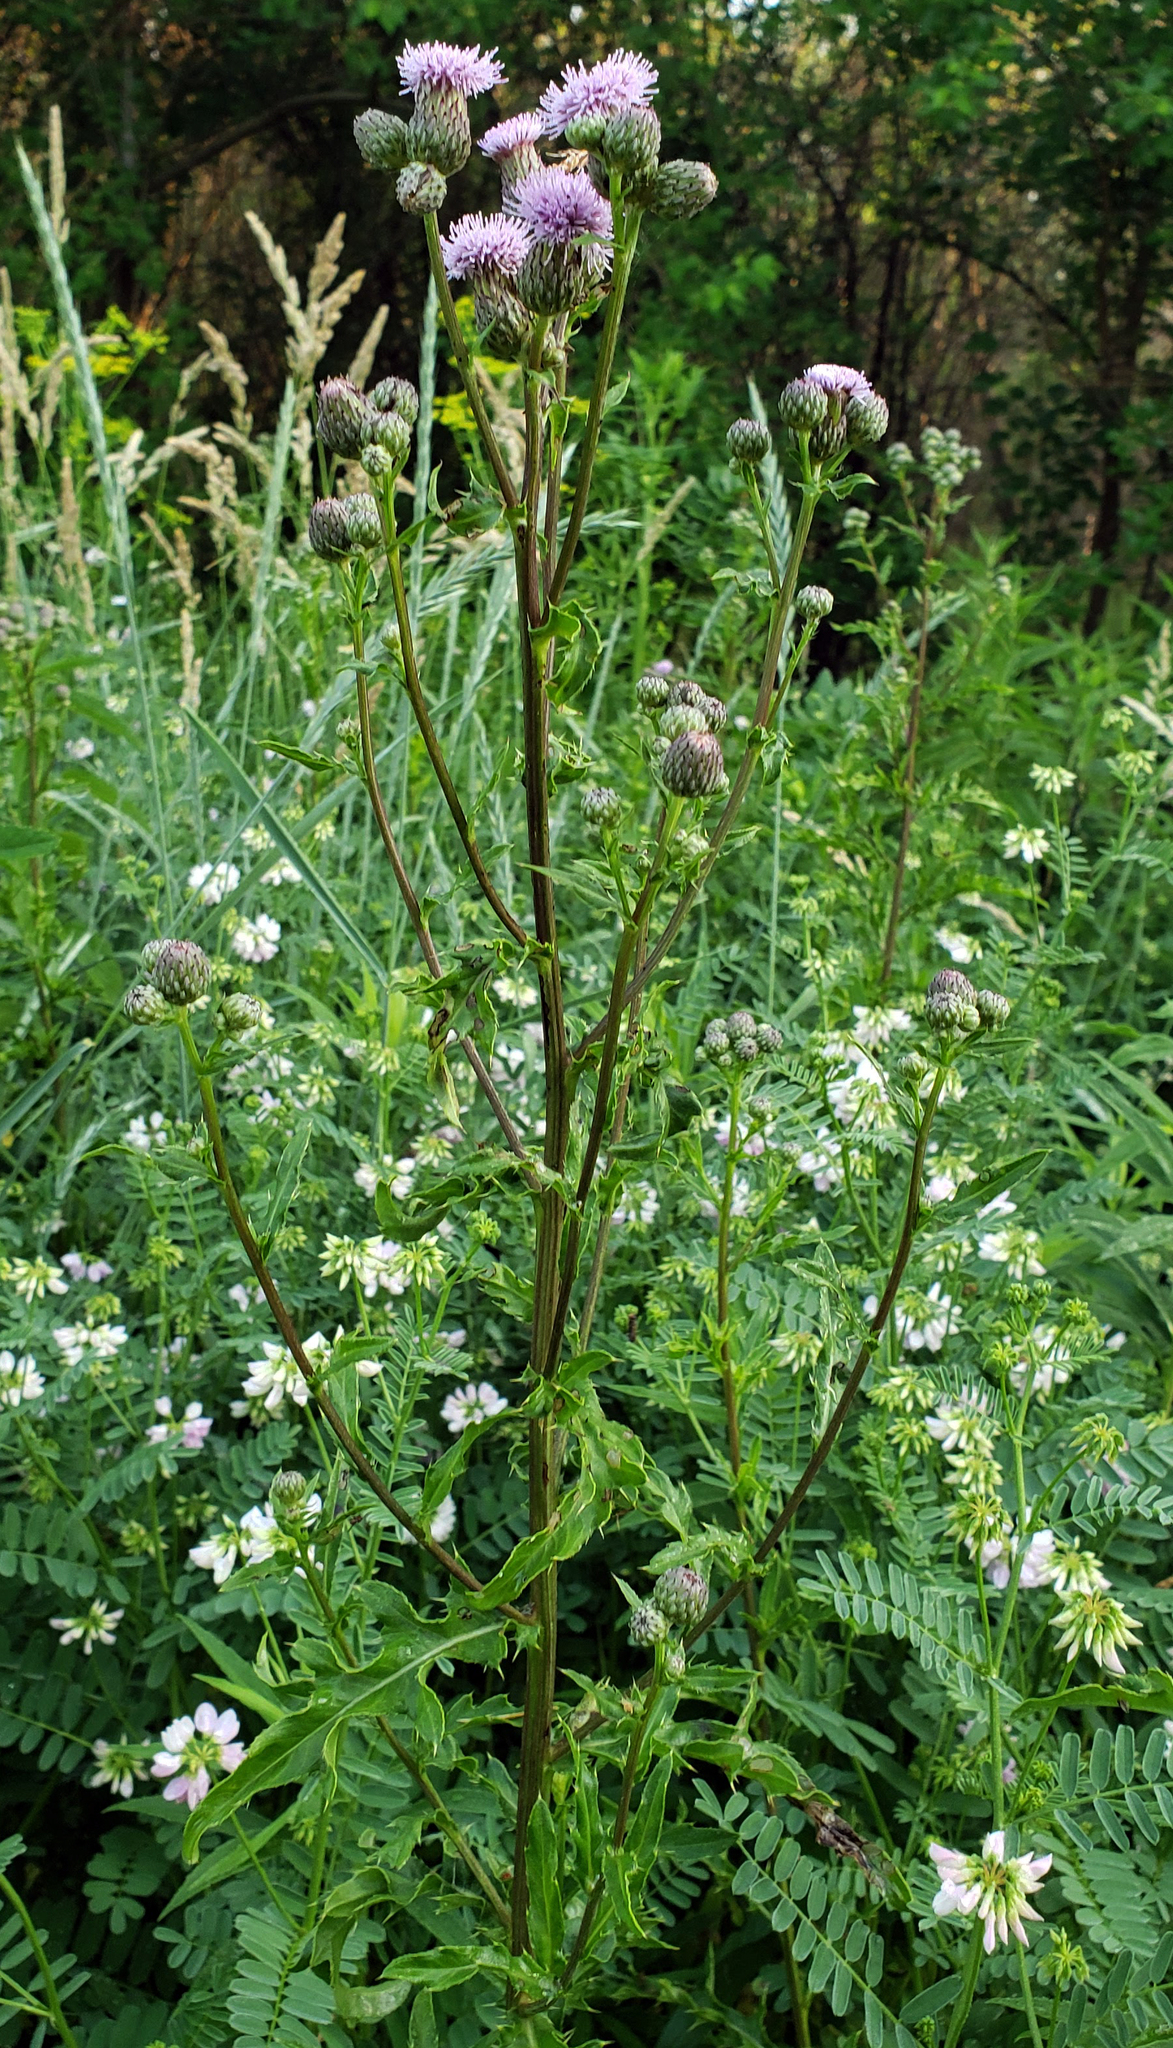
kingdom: Plantae
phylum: Tracheophyta
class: Magnoliopsida
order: Asterales
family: Asteraceae
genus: Cirsium
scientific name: Cirsium arvense
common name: Creeping thistle
